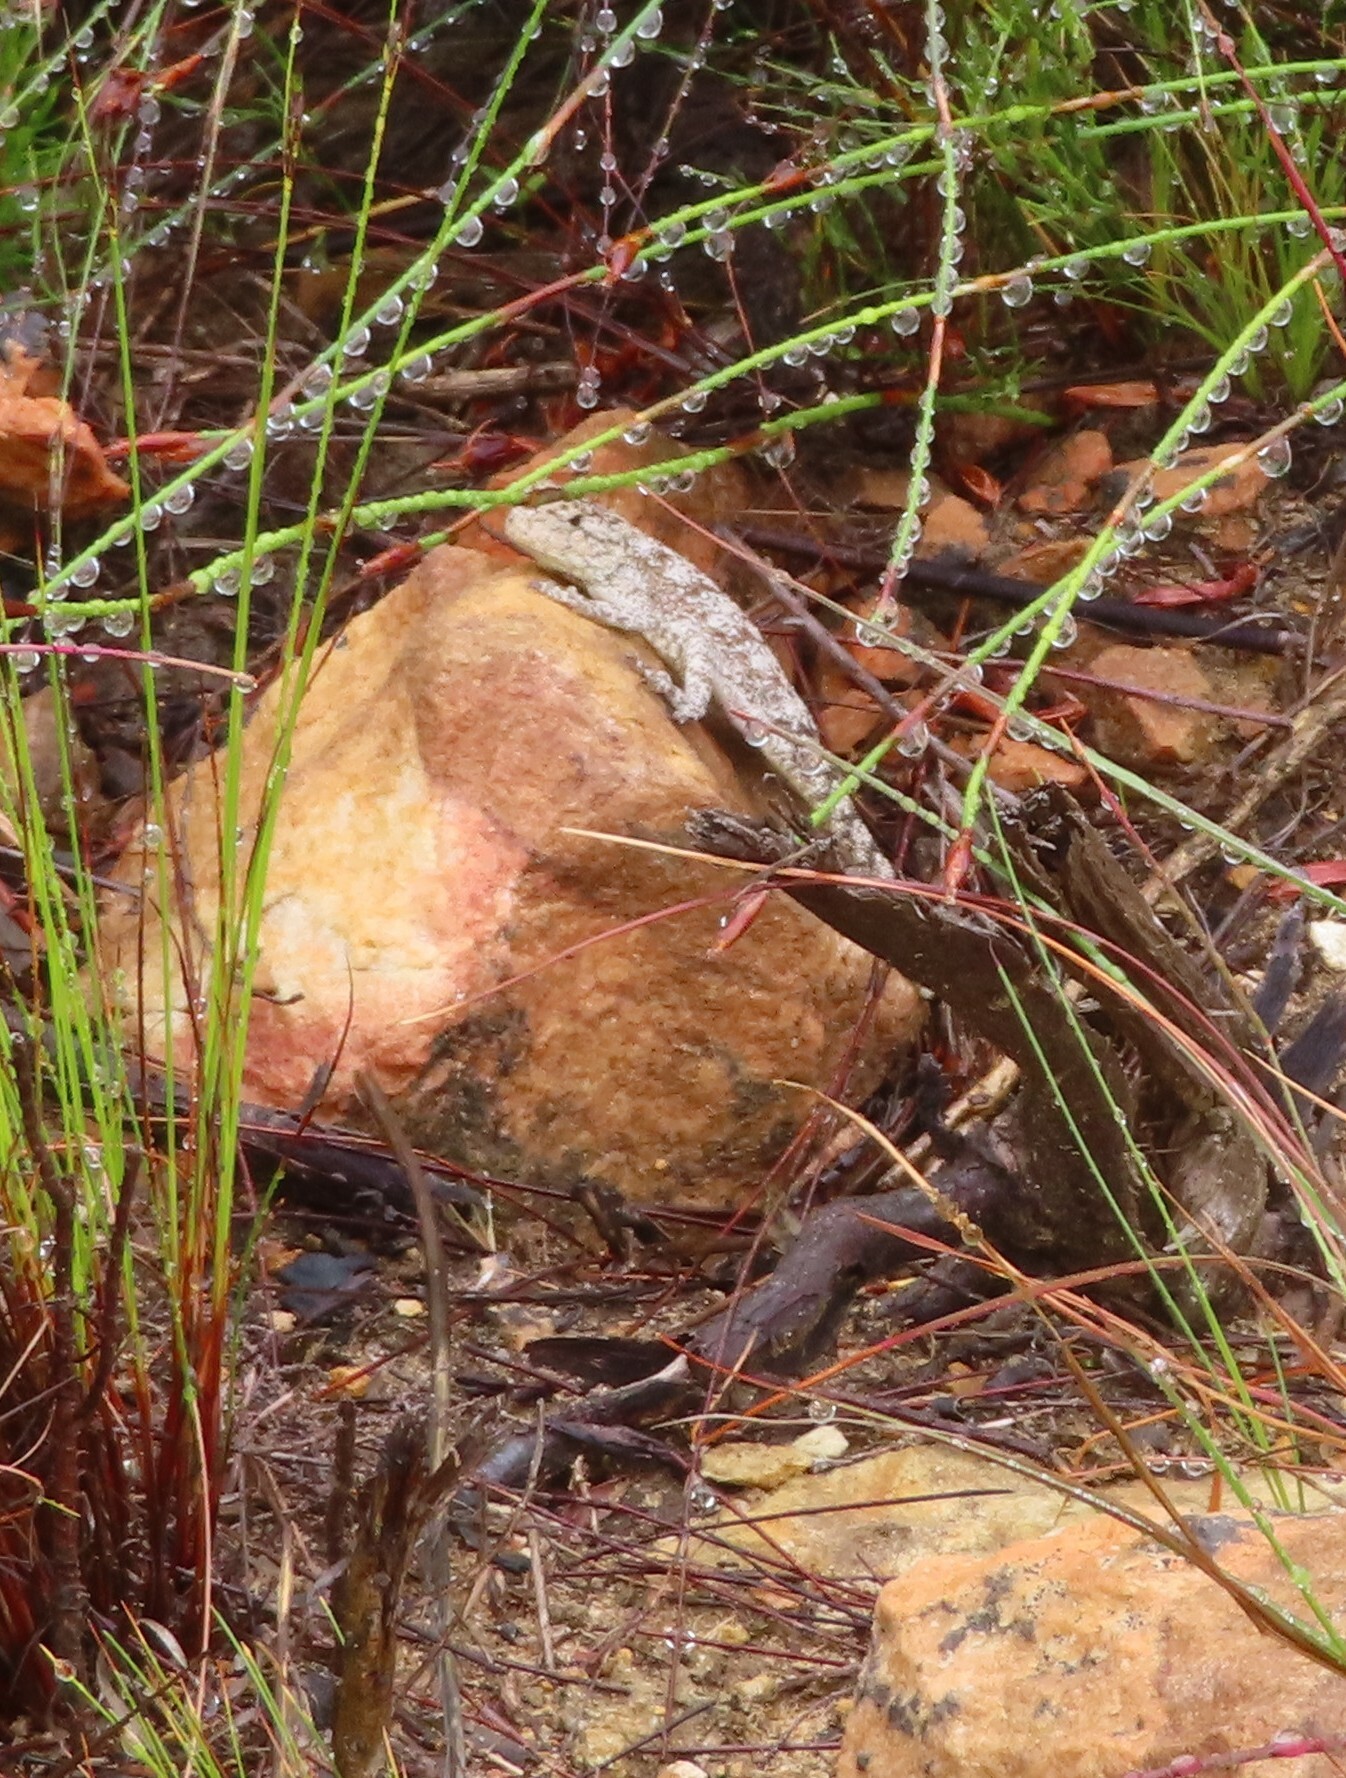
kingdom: Animalia
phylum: Chordata
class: Squamata
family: Agamidae
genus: Agama
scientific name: Agama atra
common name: Southern african rock agama
